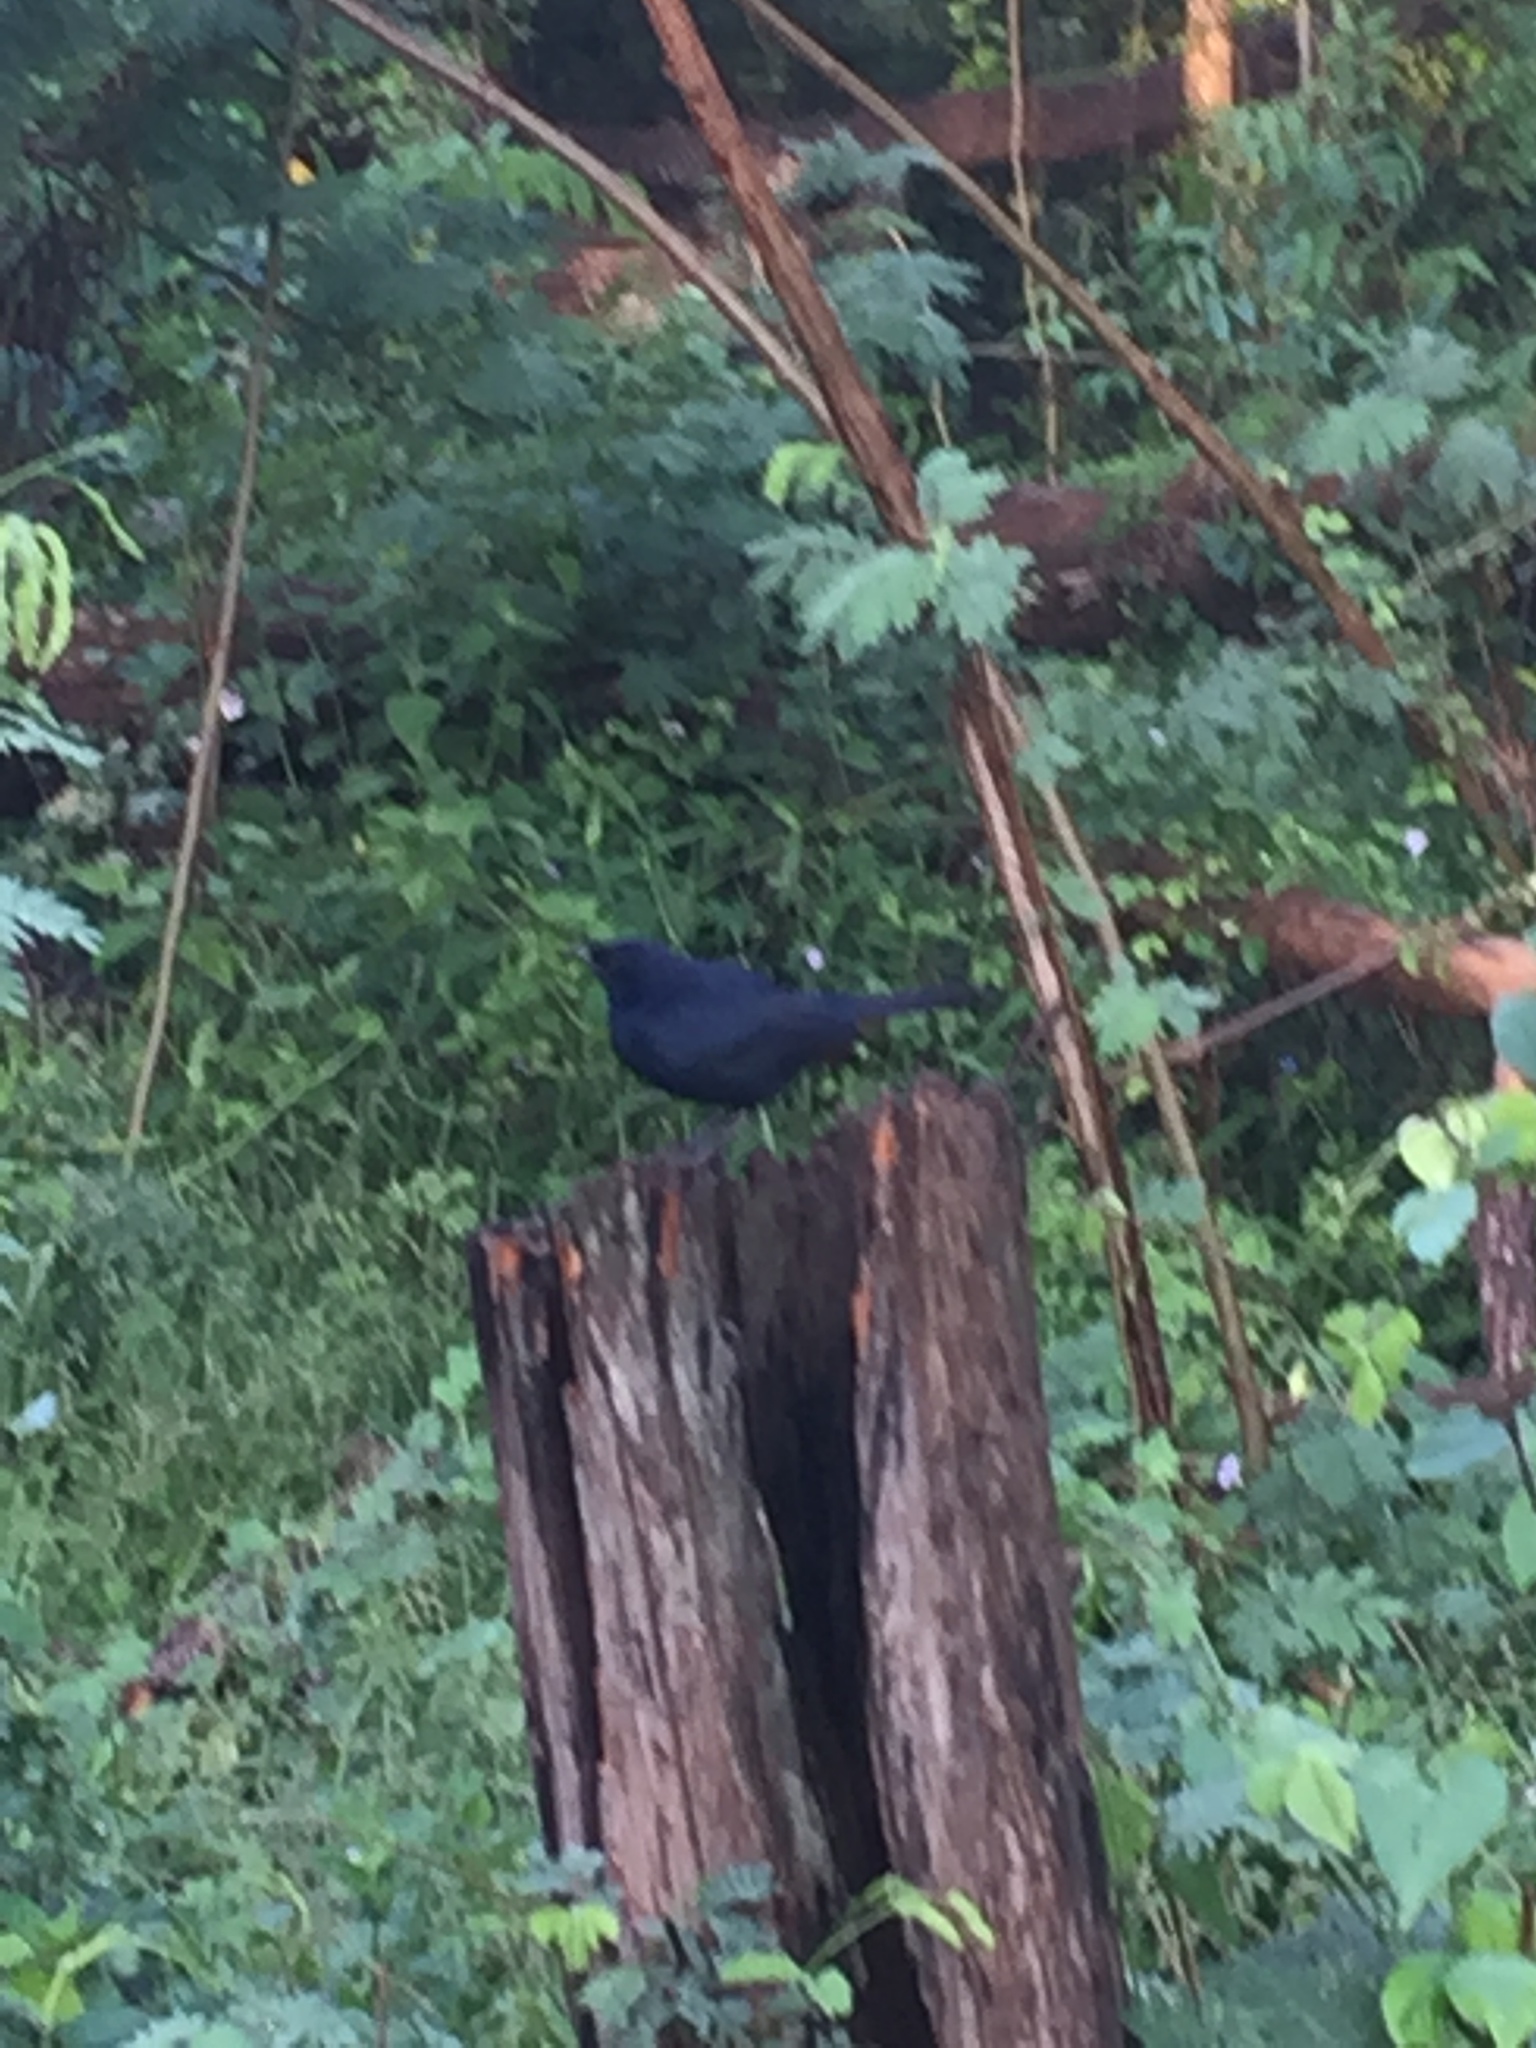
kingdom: Animalia
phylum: Chordata
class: Aves
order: Passeriformes
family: Muscicapidae
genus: Saxicoloides
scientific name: Saxicoloides fulicatus
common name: Indian robin
